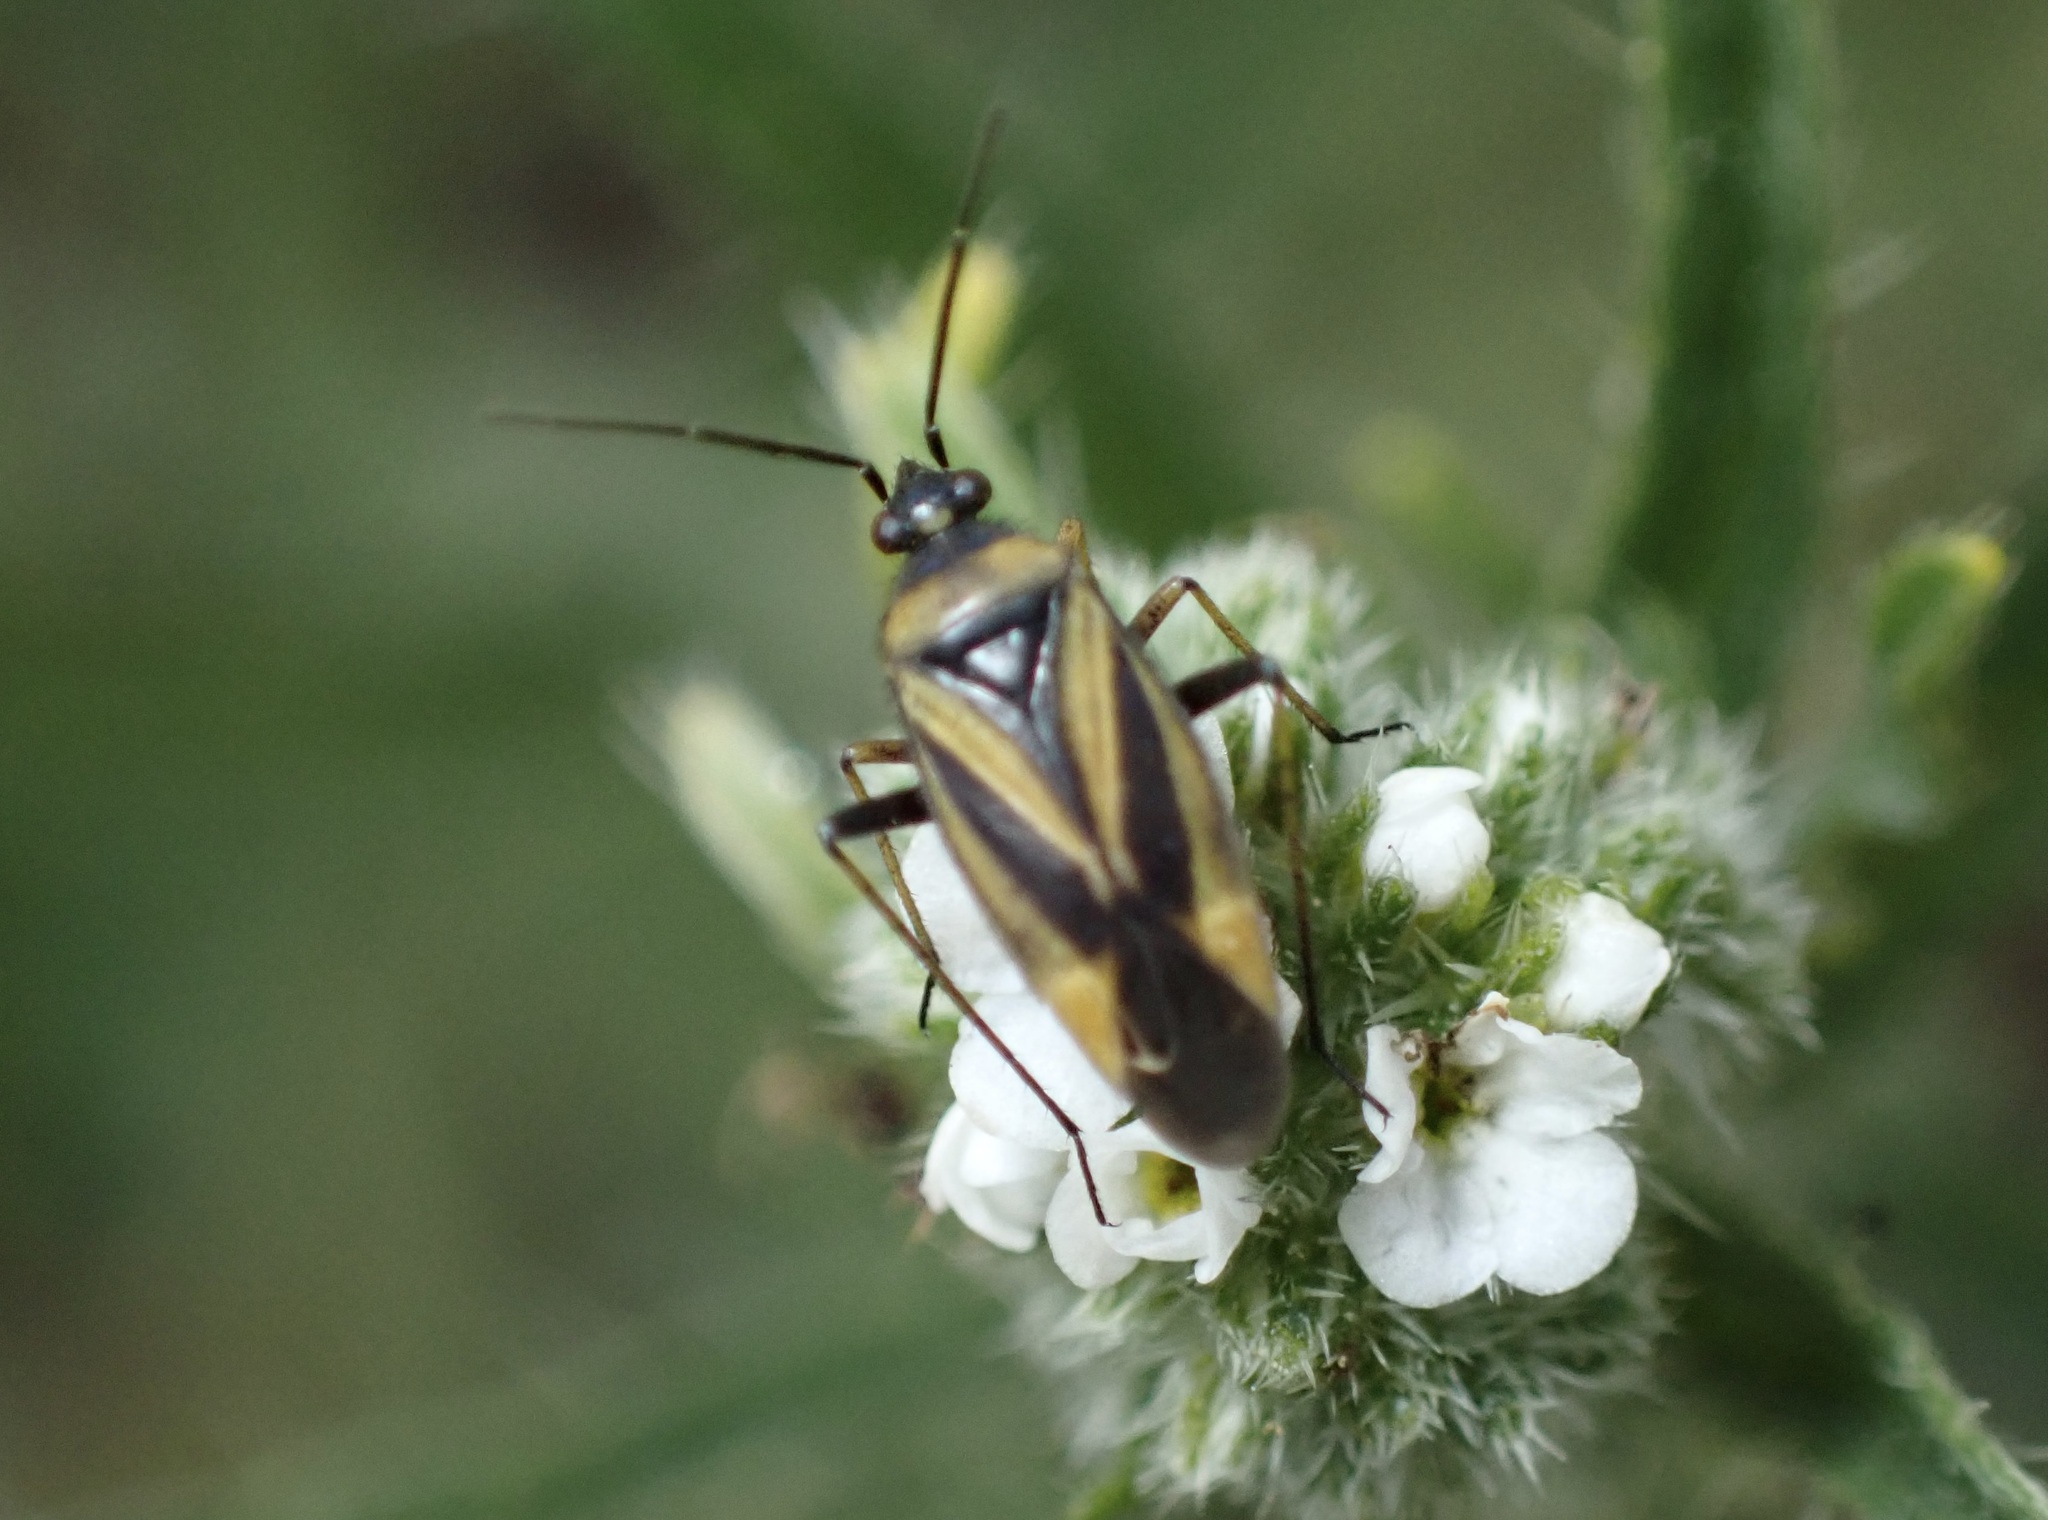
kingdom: Animalia
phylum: Arthropoda
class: Insecta
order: Hemiptera
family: Miridae
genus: Plagiognathus
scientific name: Plagiognathus moerens
